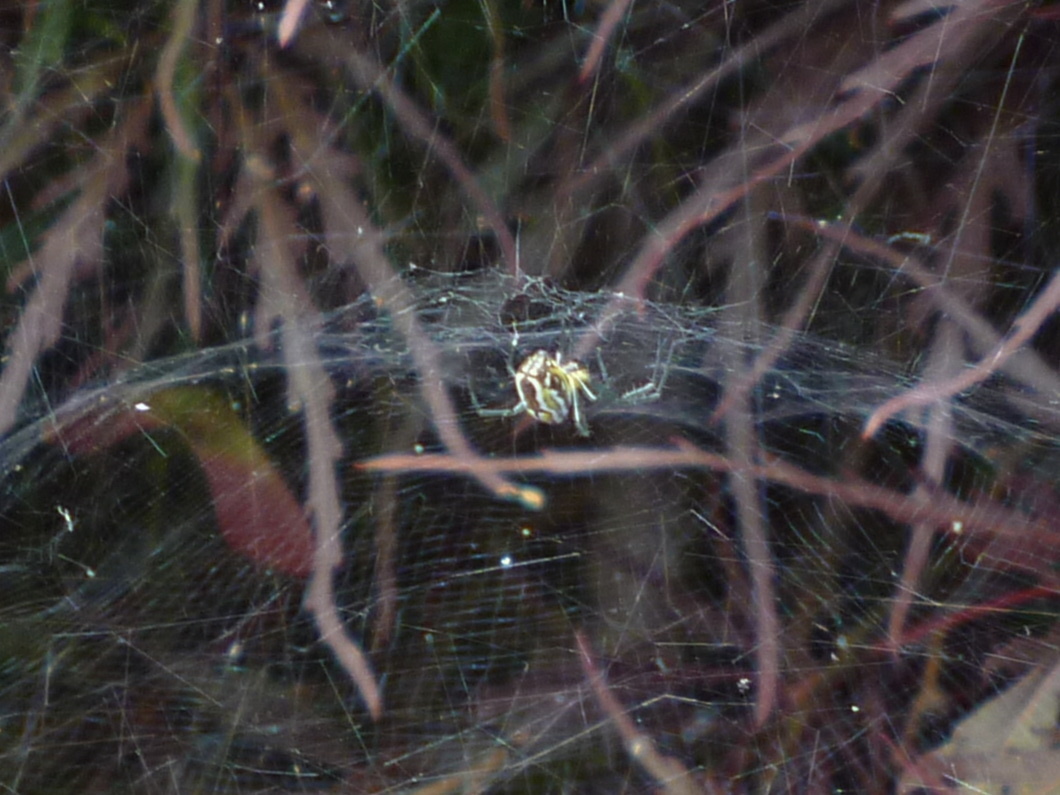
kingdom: Animalia
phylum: Arthropoda
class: Arachnida
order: Araneae
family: Araneidae
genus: Mecynogea
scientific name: Mecynogea lemniscata
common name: Orb weavers
